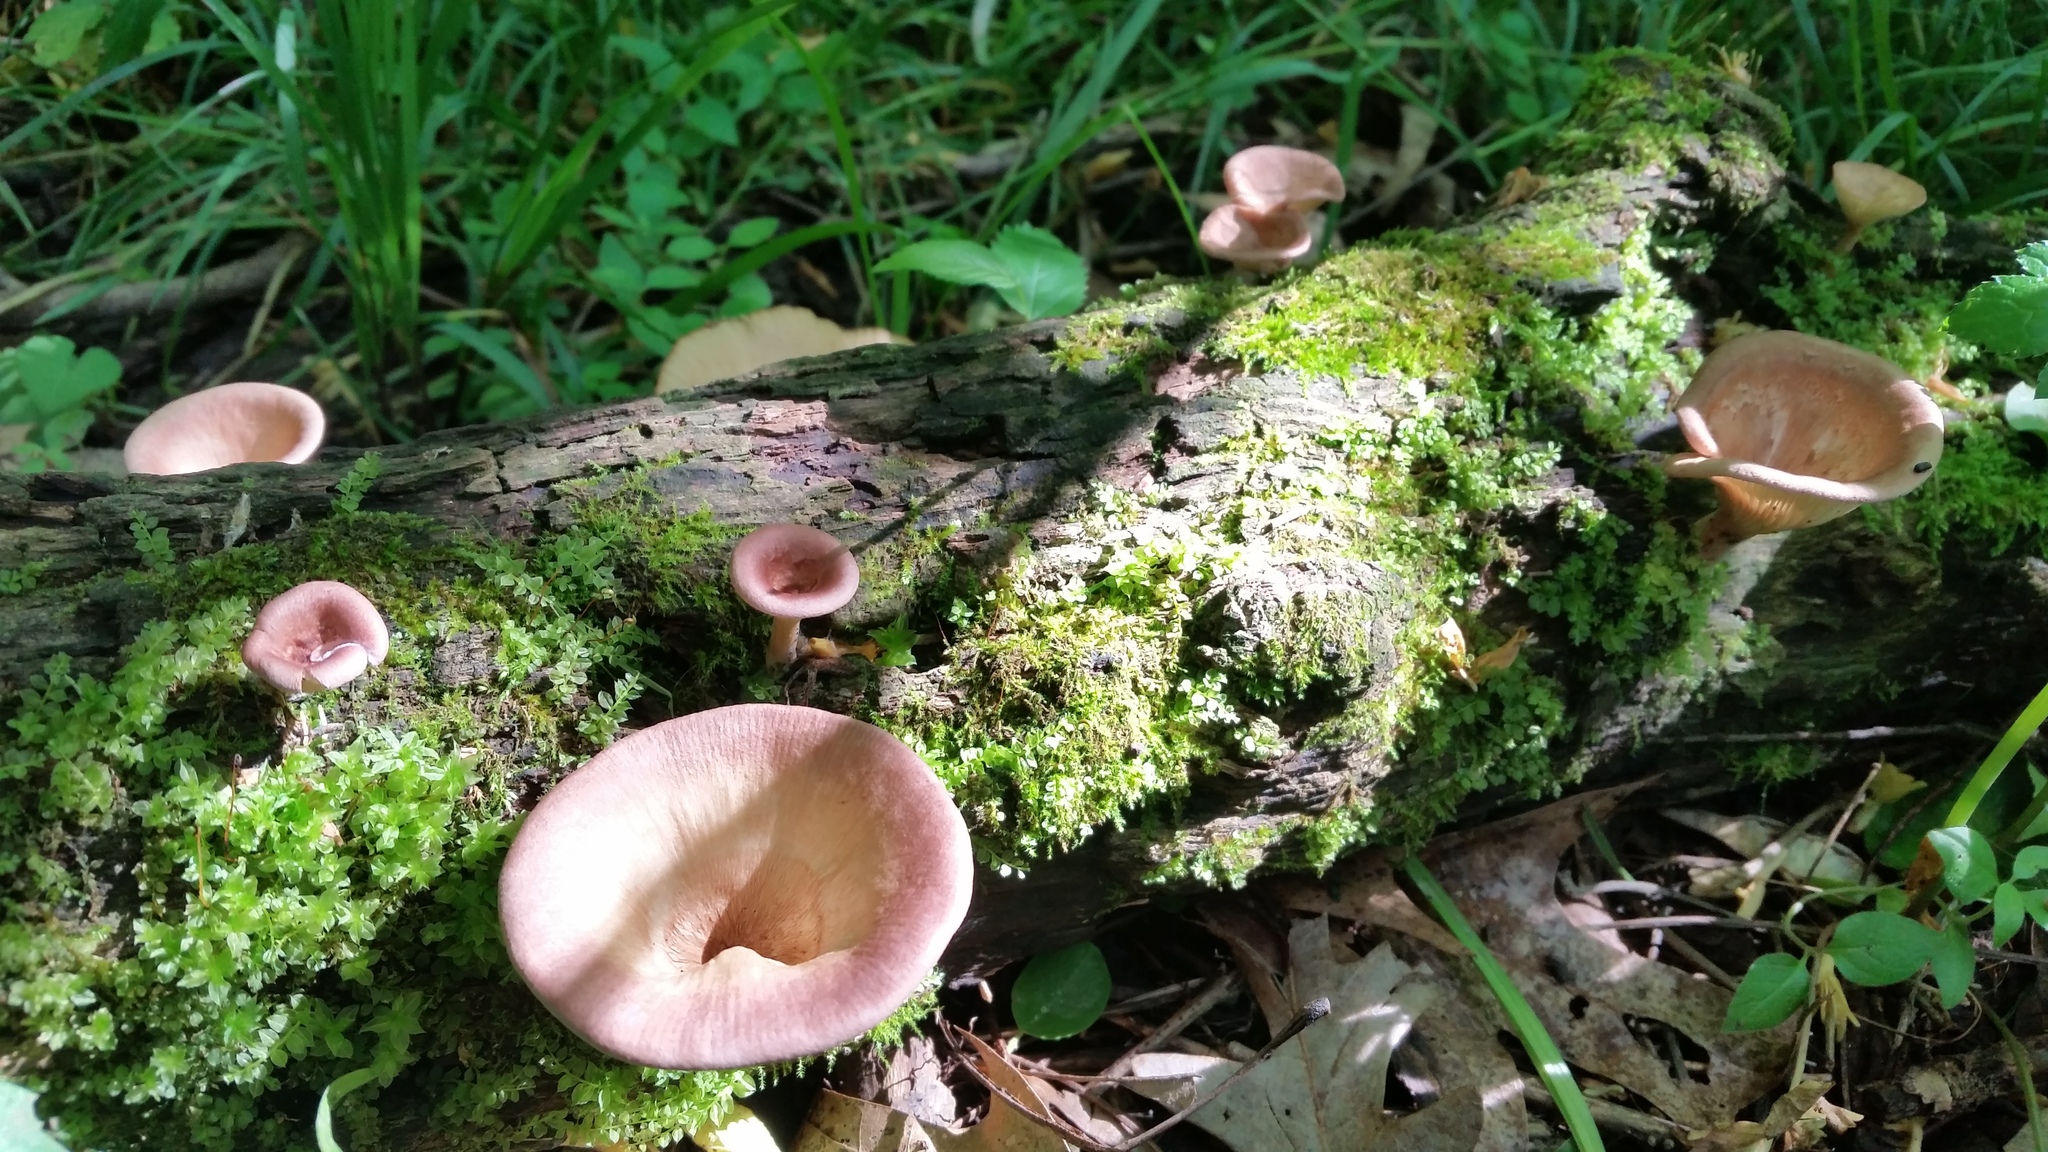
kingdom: Fungi
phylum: Basidiomycota
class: Agaricomycetes
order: Polyporales
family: Panaceae
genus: Panus
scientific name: Panus conchatus
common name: Lilac oysterling
